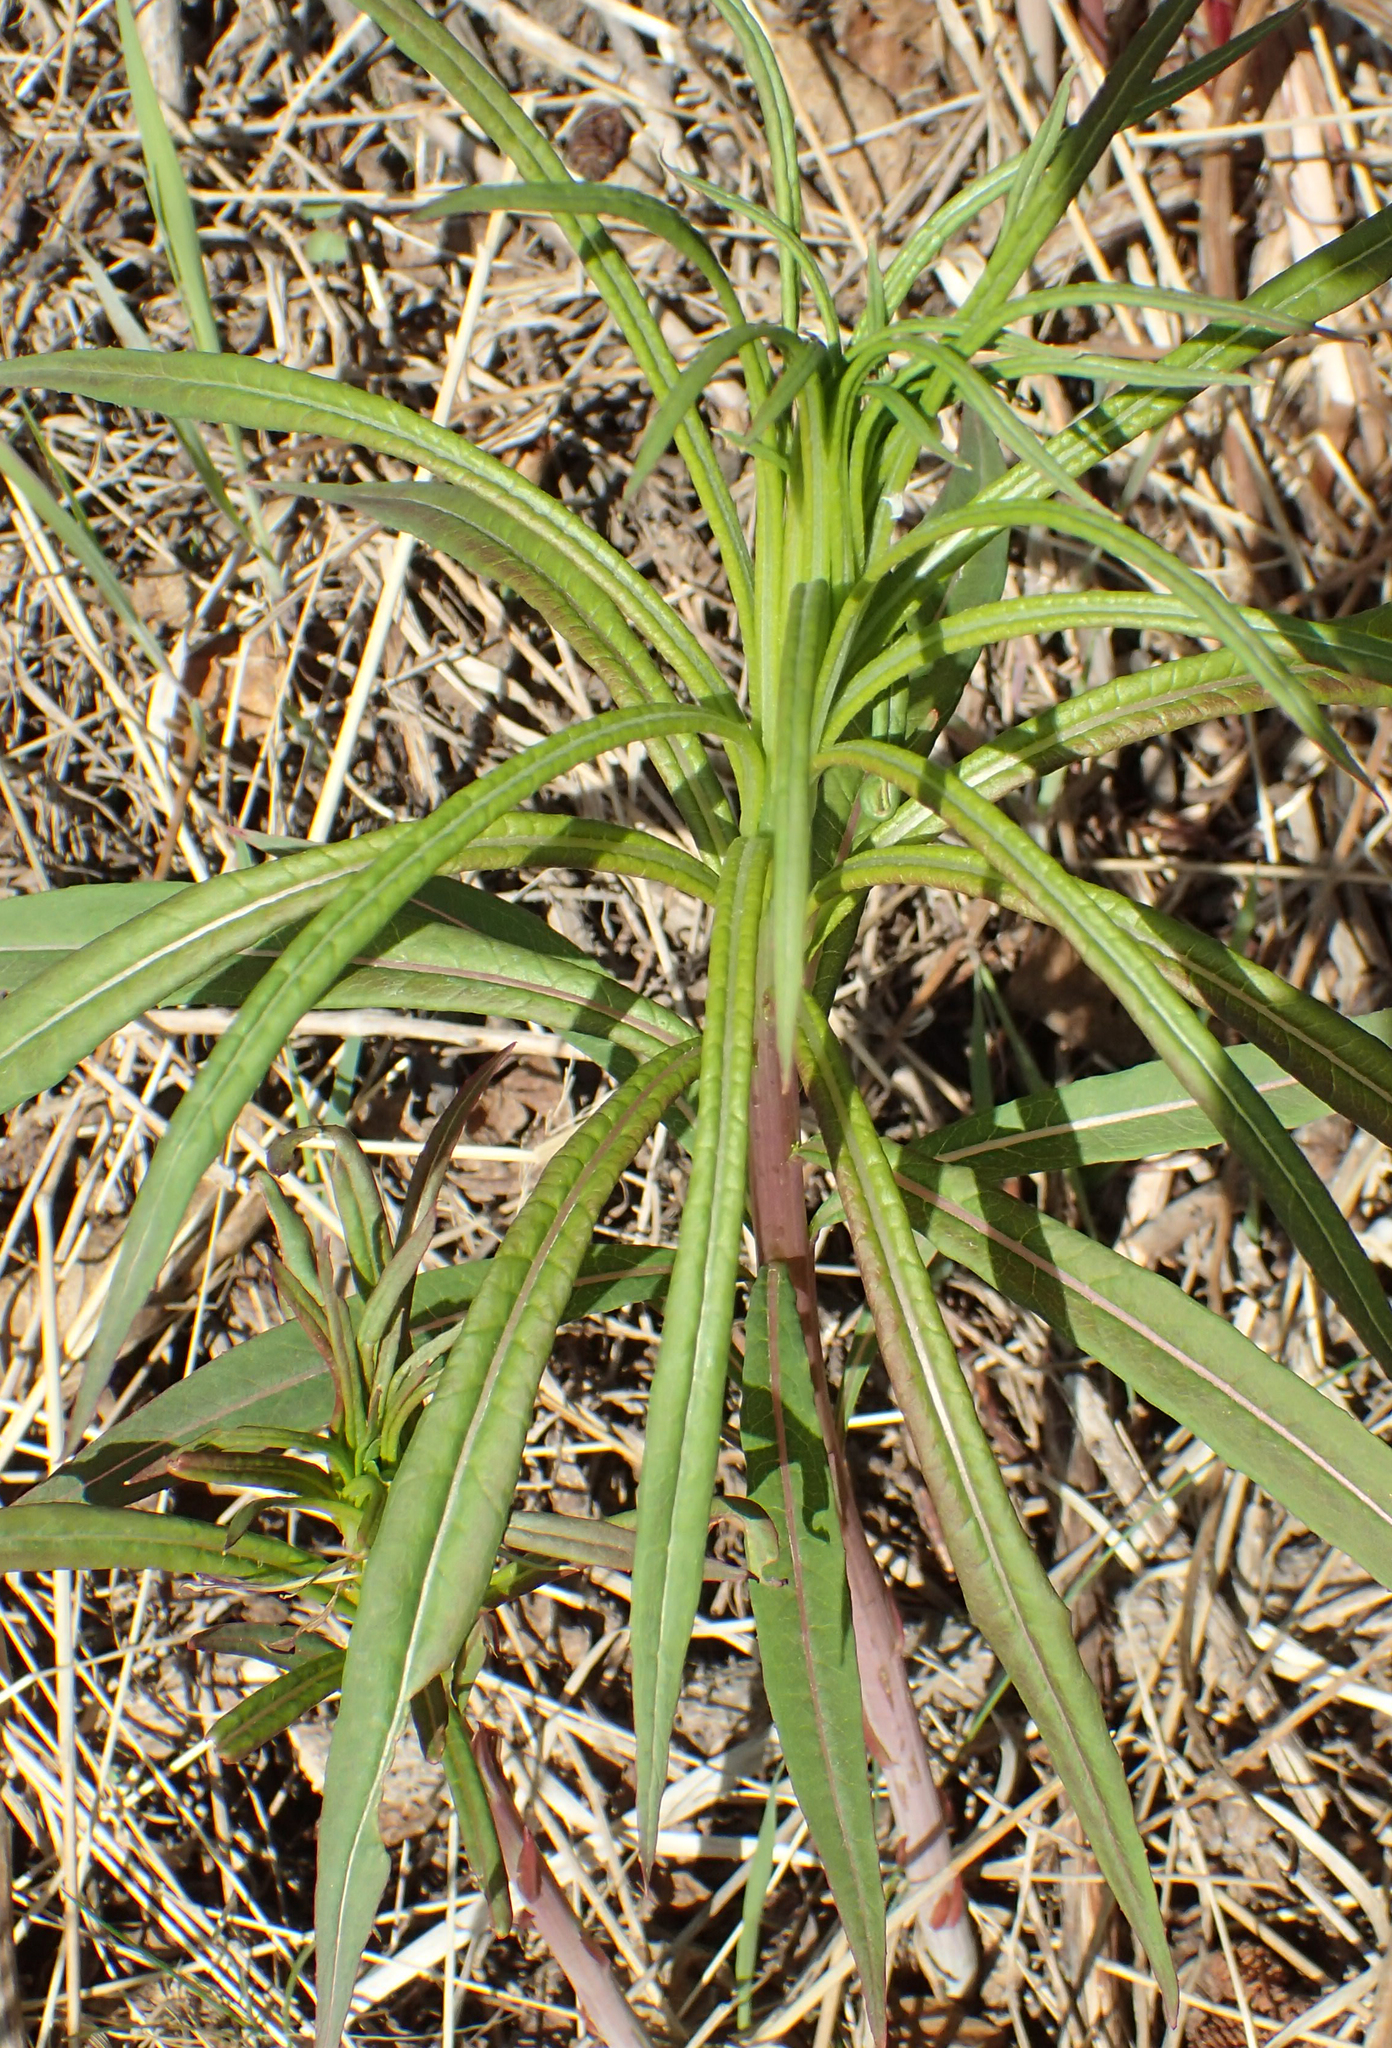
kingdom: Plantae
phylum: Tracheophyta
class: Magnoliopsida
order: Myrtales
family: Onagraceae
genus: Chamaenerion
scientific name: Chamaenerion angustifolium
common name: Fireweed
